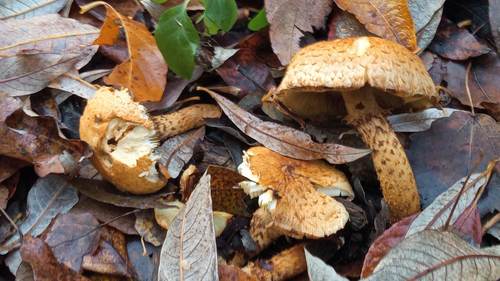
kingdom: Fungi
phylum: Basidiomycota
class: Agaricomycetes
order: Agaricales
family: Strophariaceae
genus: Pholiota
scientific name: Pholiota squarrosa
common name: Shaggy pholiota
